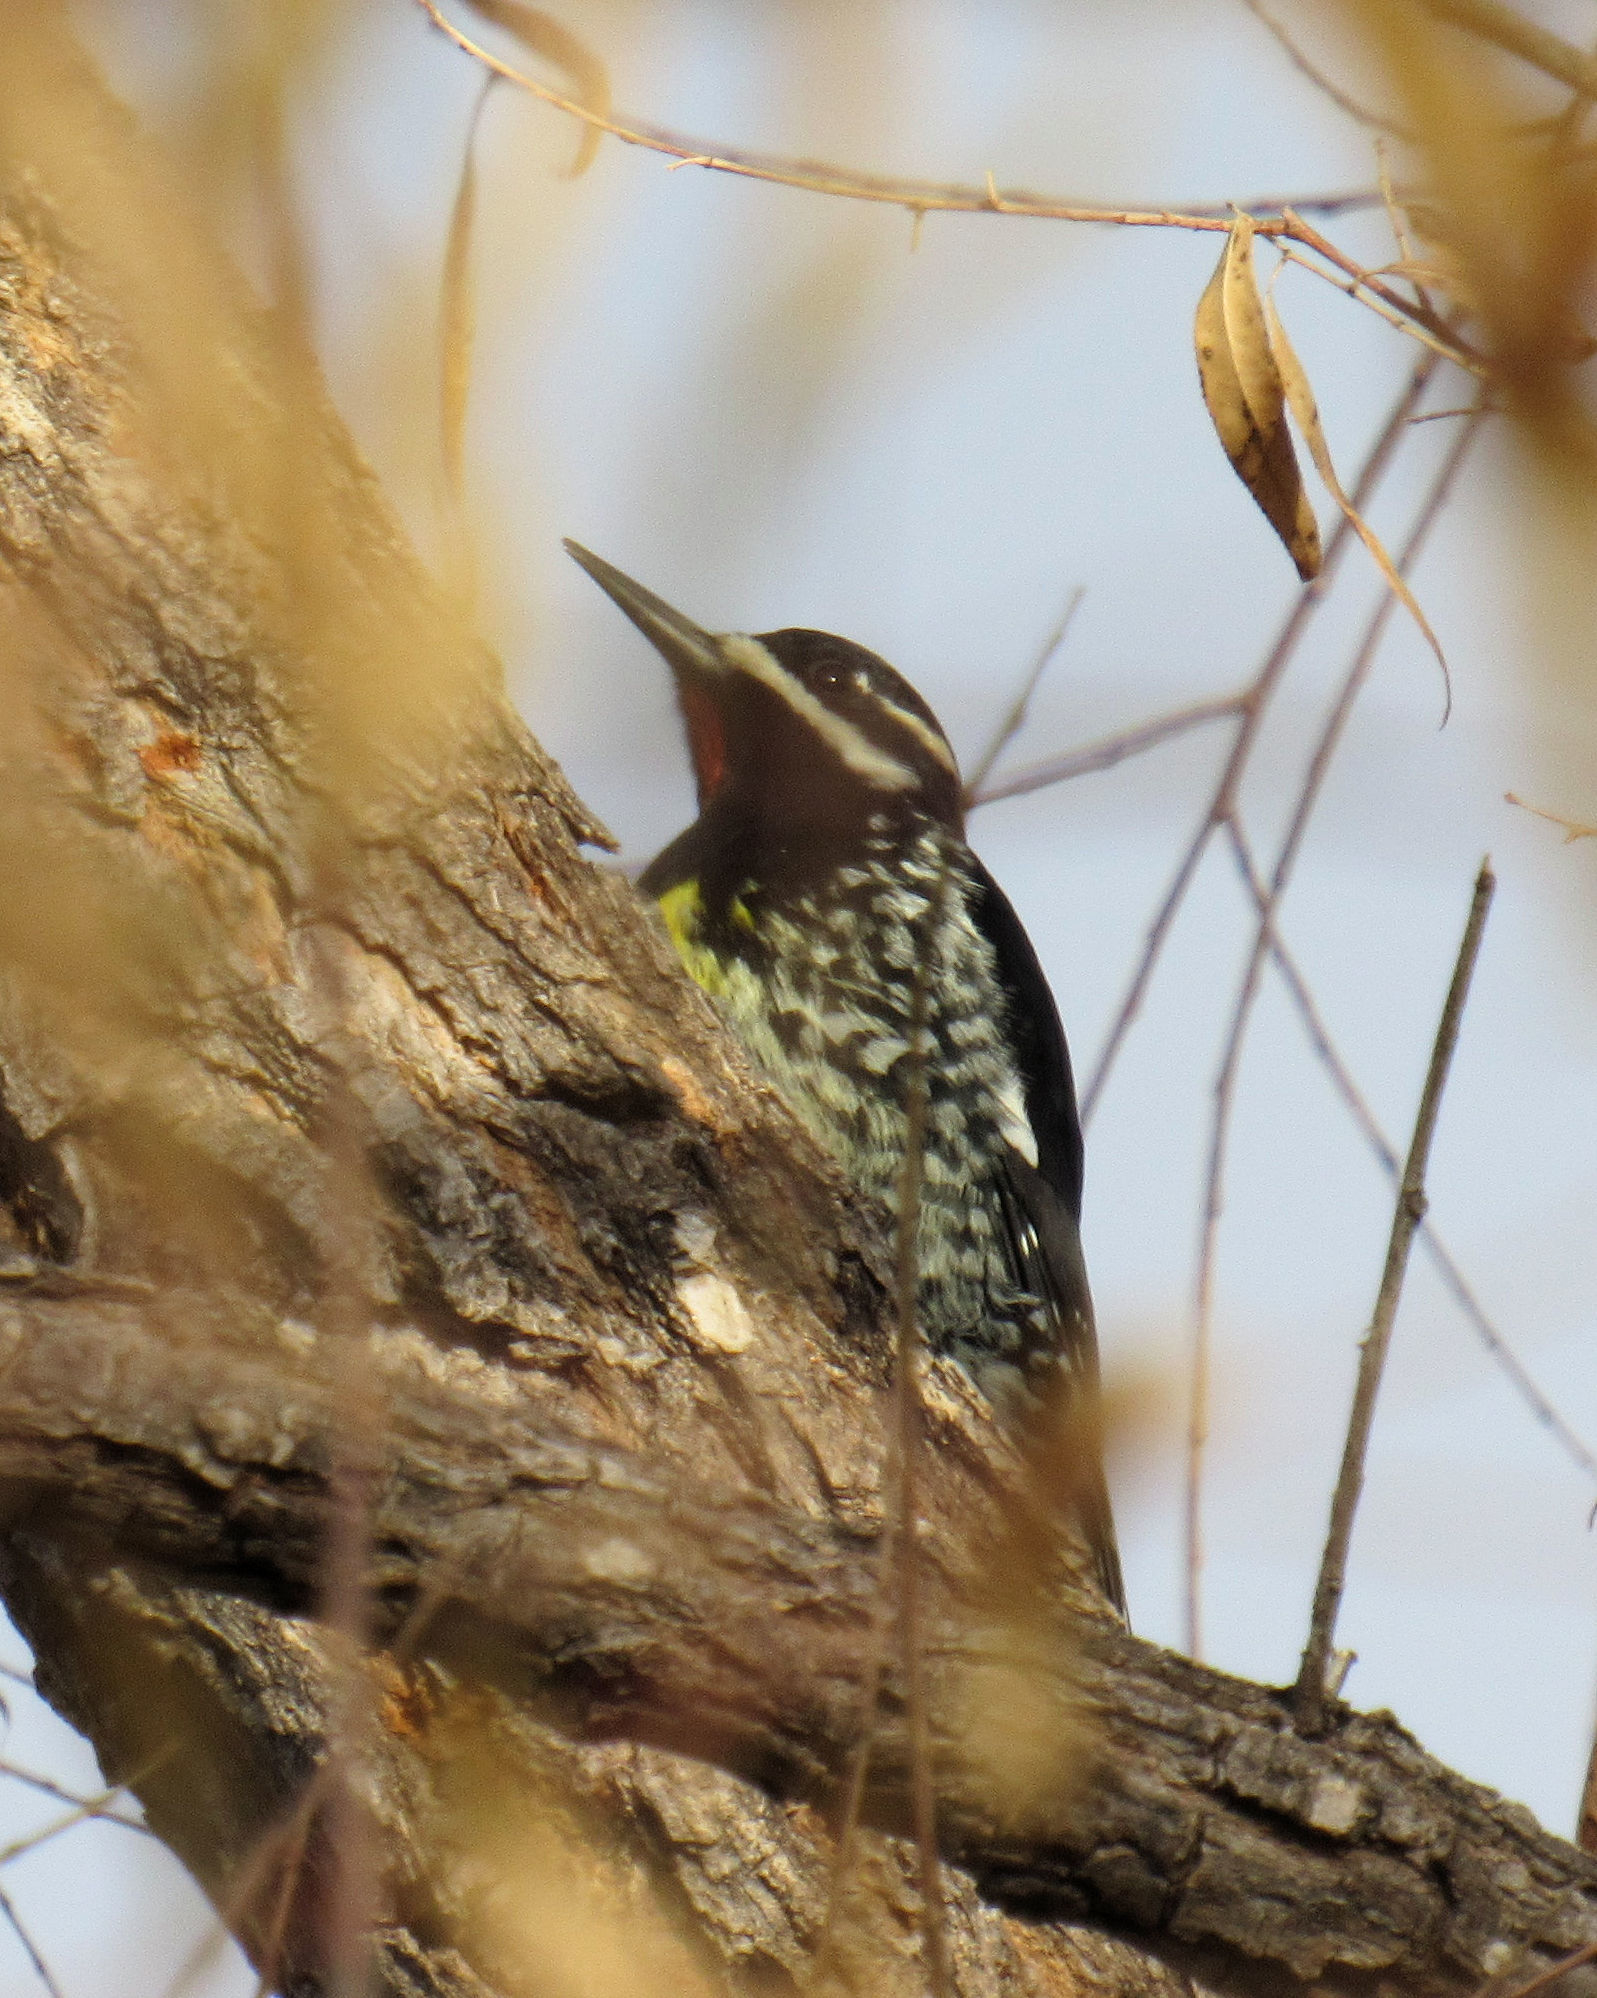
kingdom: Animalia
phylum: Chordata
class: Aves
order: Piciformes
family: Picidae
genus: Sphyrapicus
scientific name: Sphyrapicus thyroideus
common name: Williamson's sapsucker
